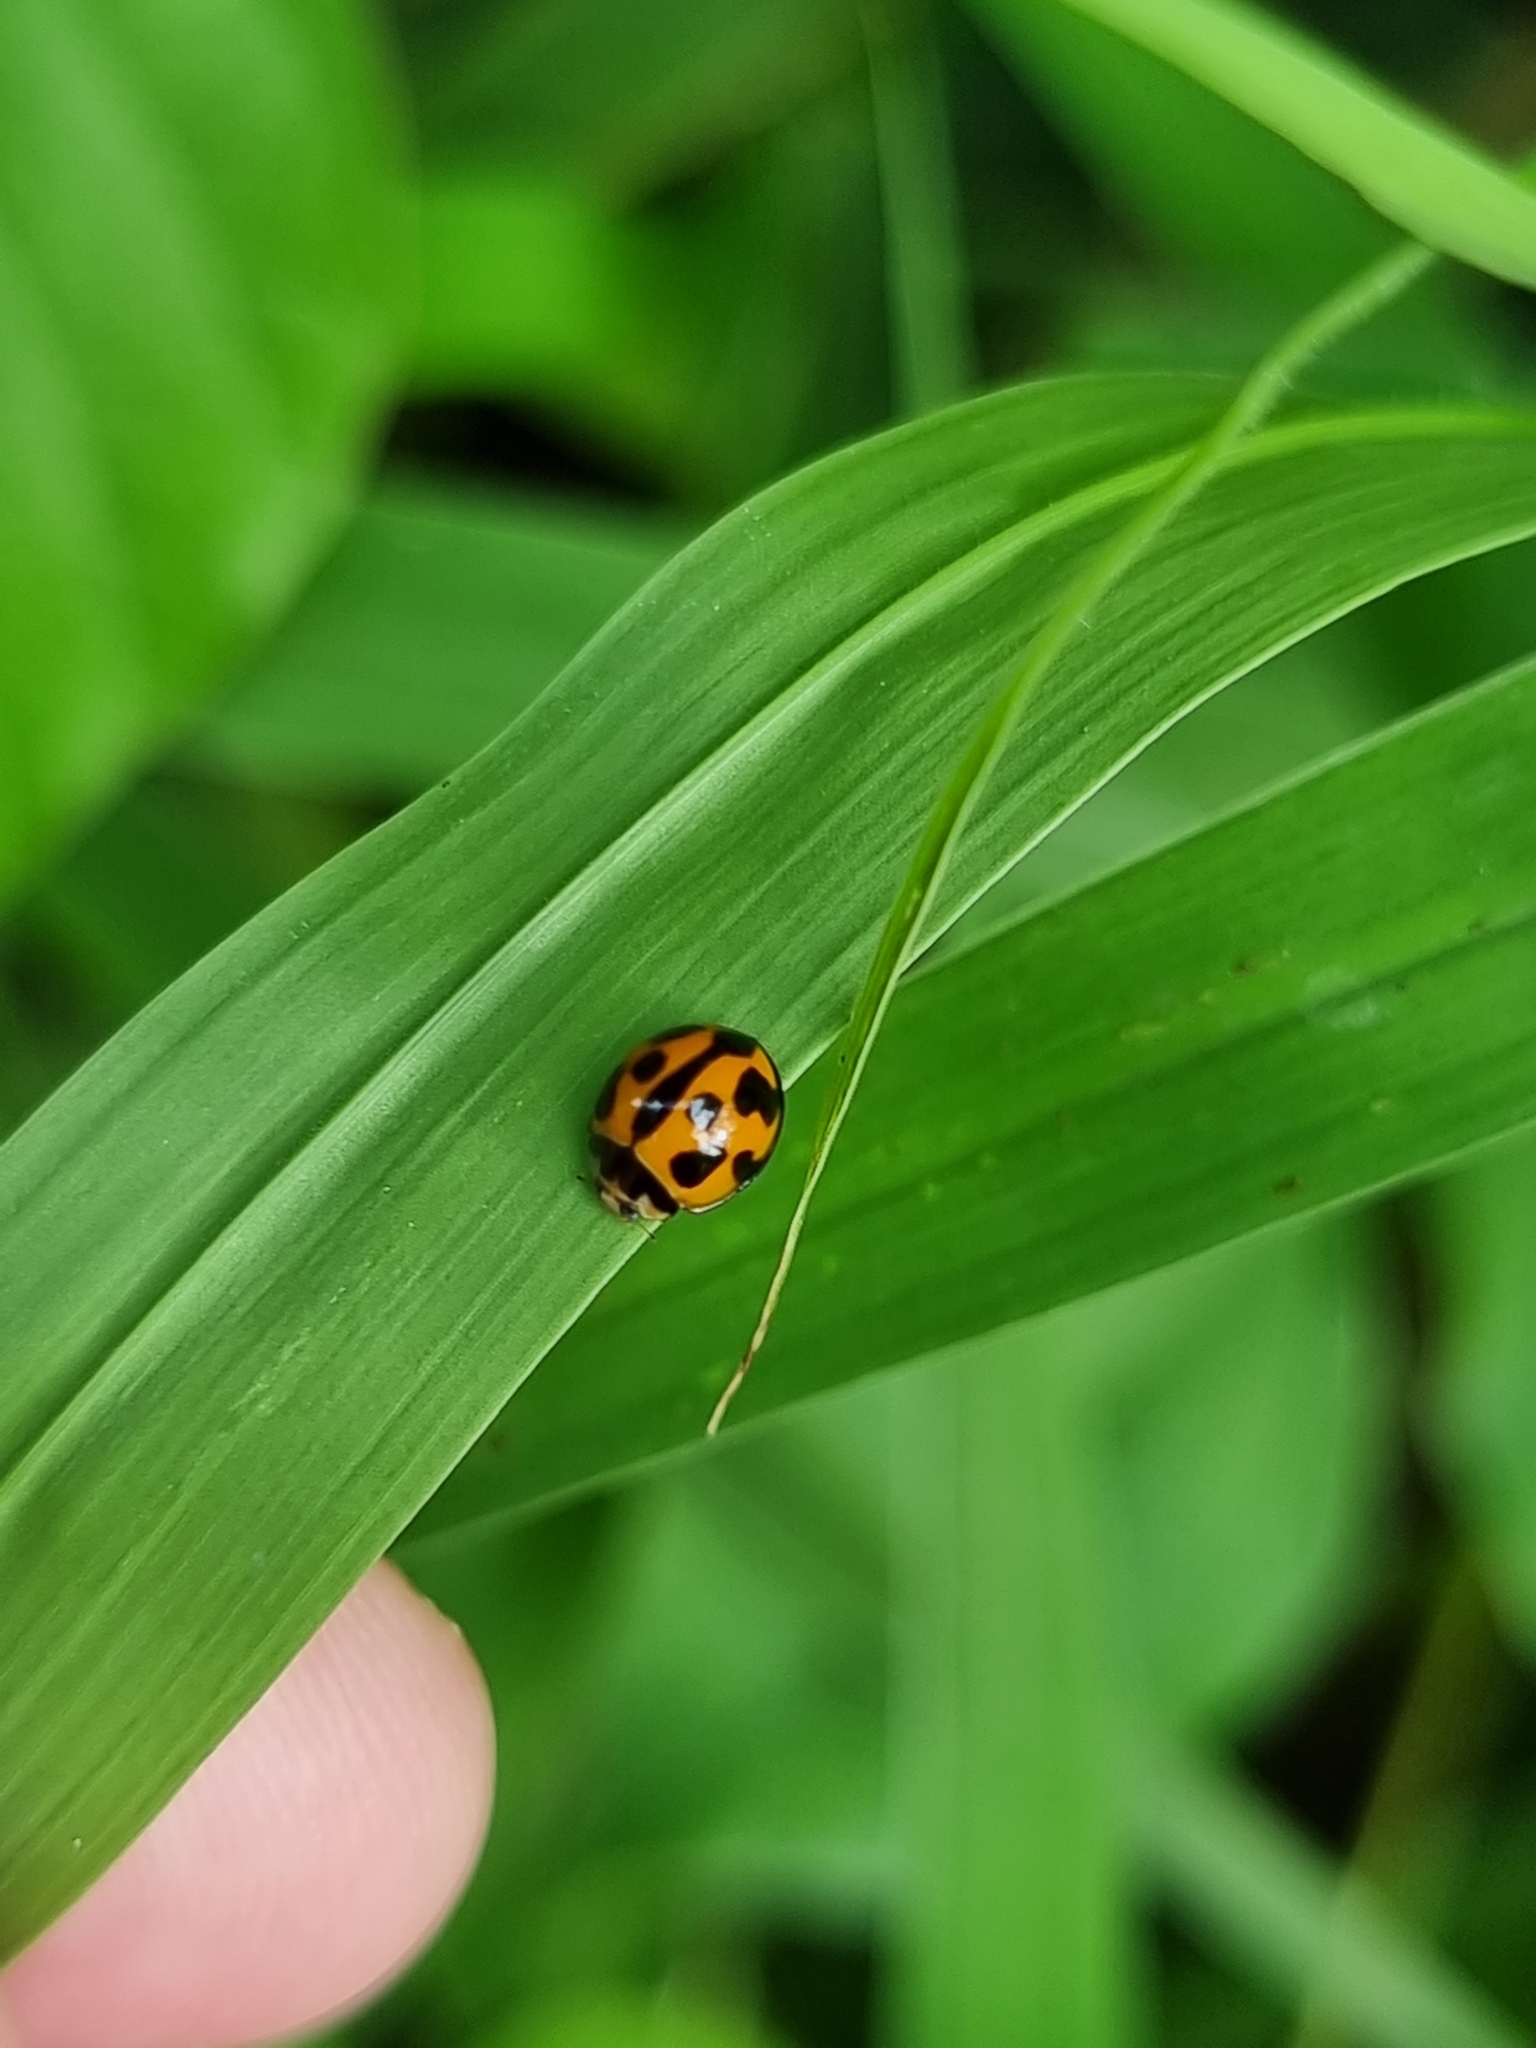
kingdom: Animalia
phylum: Arthropoda
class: Insecta
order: Coleoptera
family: Coccinellidae
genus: Coelophora
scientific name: Coelophora inaequalis
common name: Common australian lady beetle
